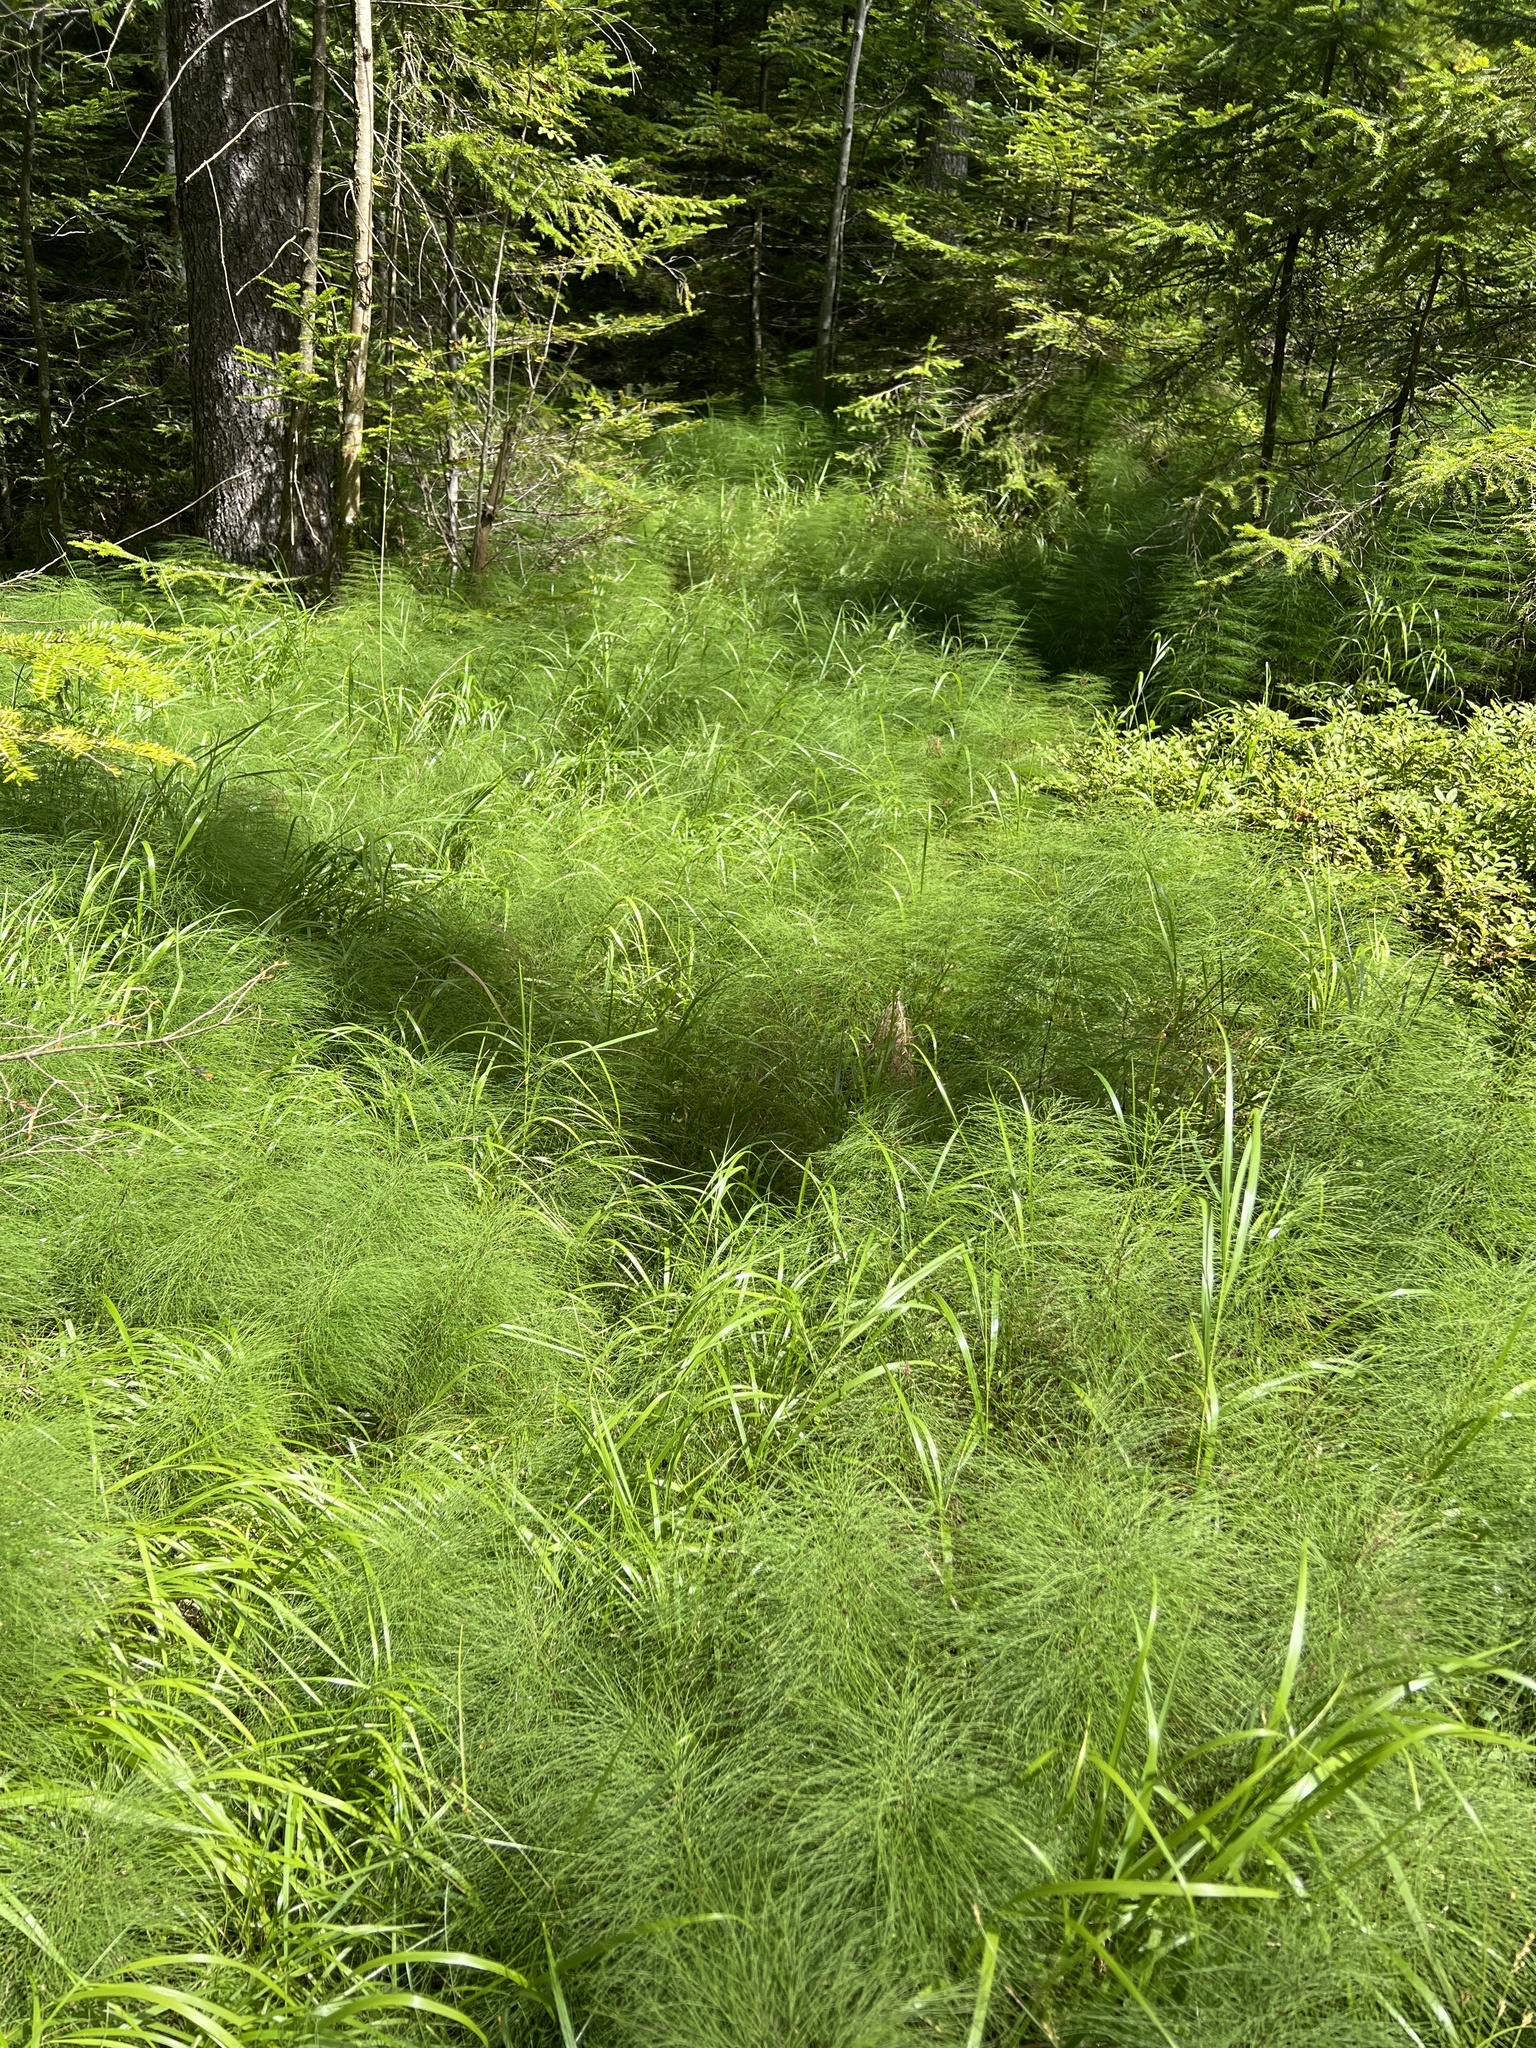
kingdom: Plantae
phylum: Tracheophyta
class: Polypodiopsida
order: Equisetales
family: Equisetaceae
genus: Equisetum
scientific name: Equisetum sylvaticum
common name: Wood horsetail
